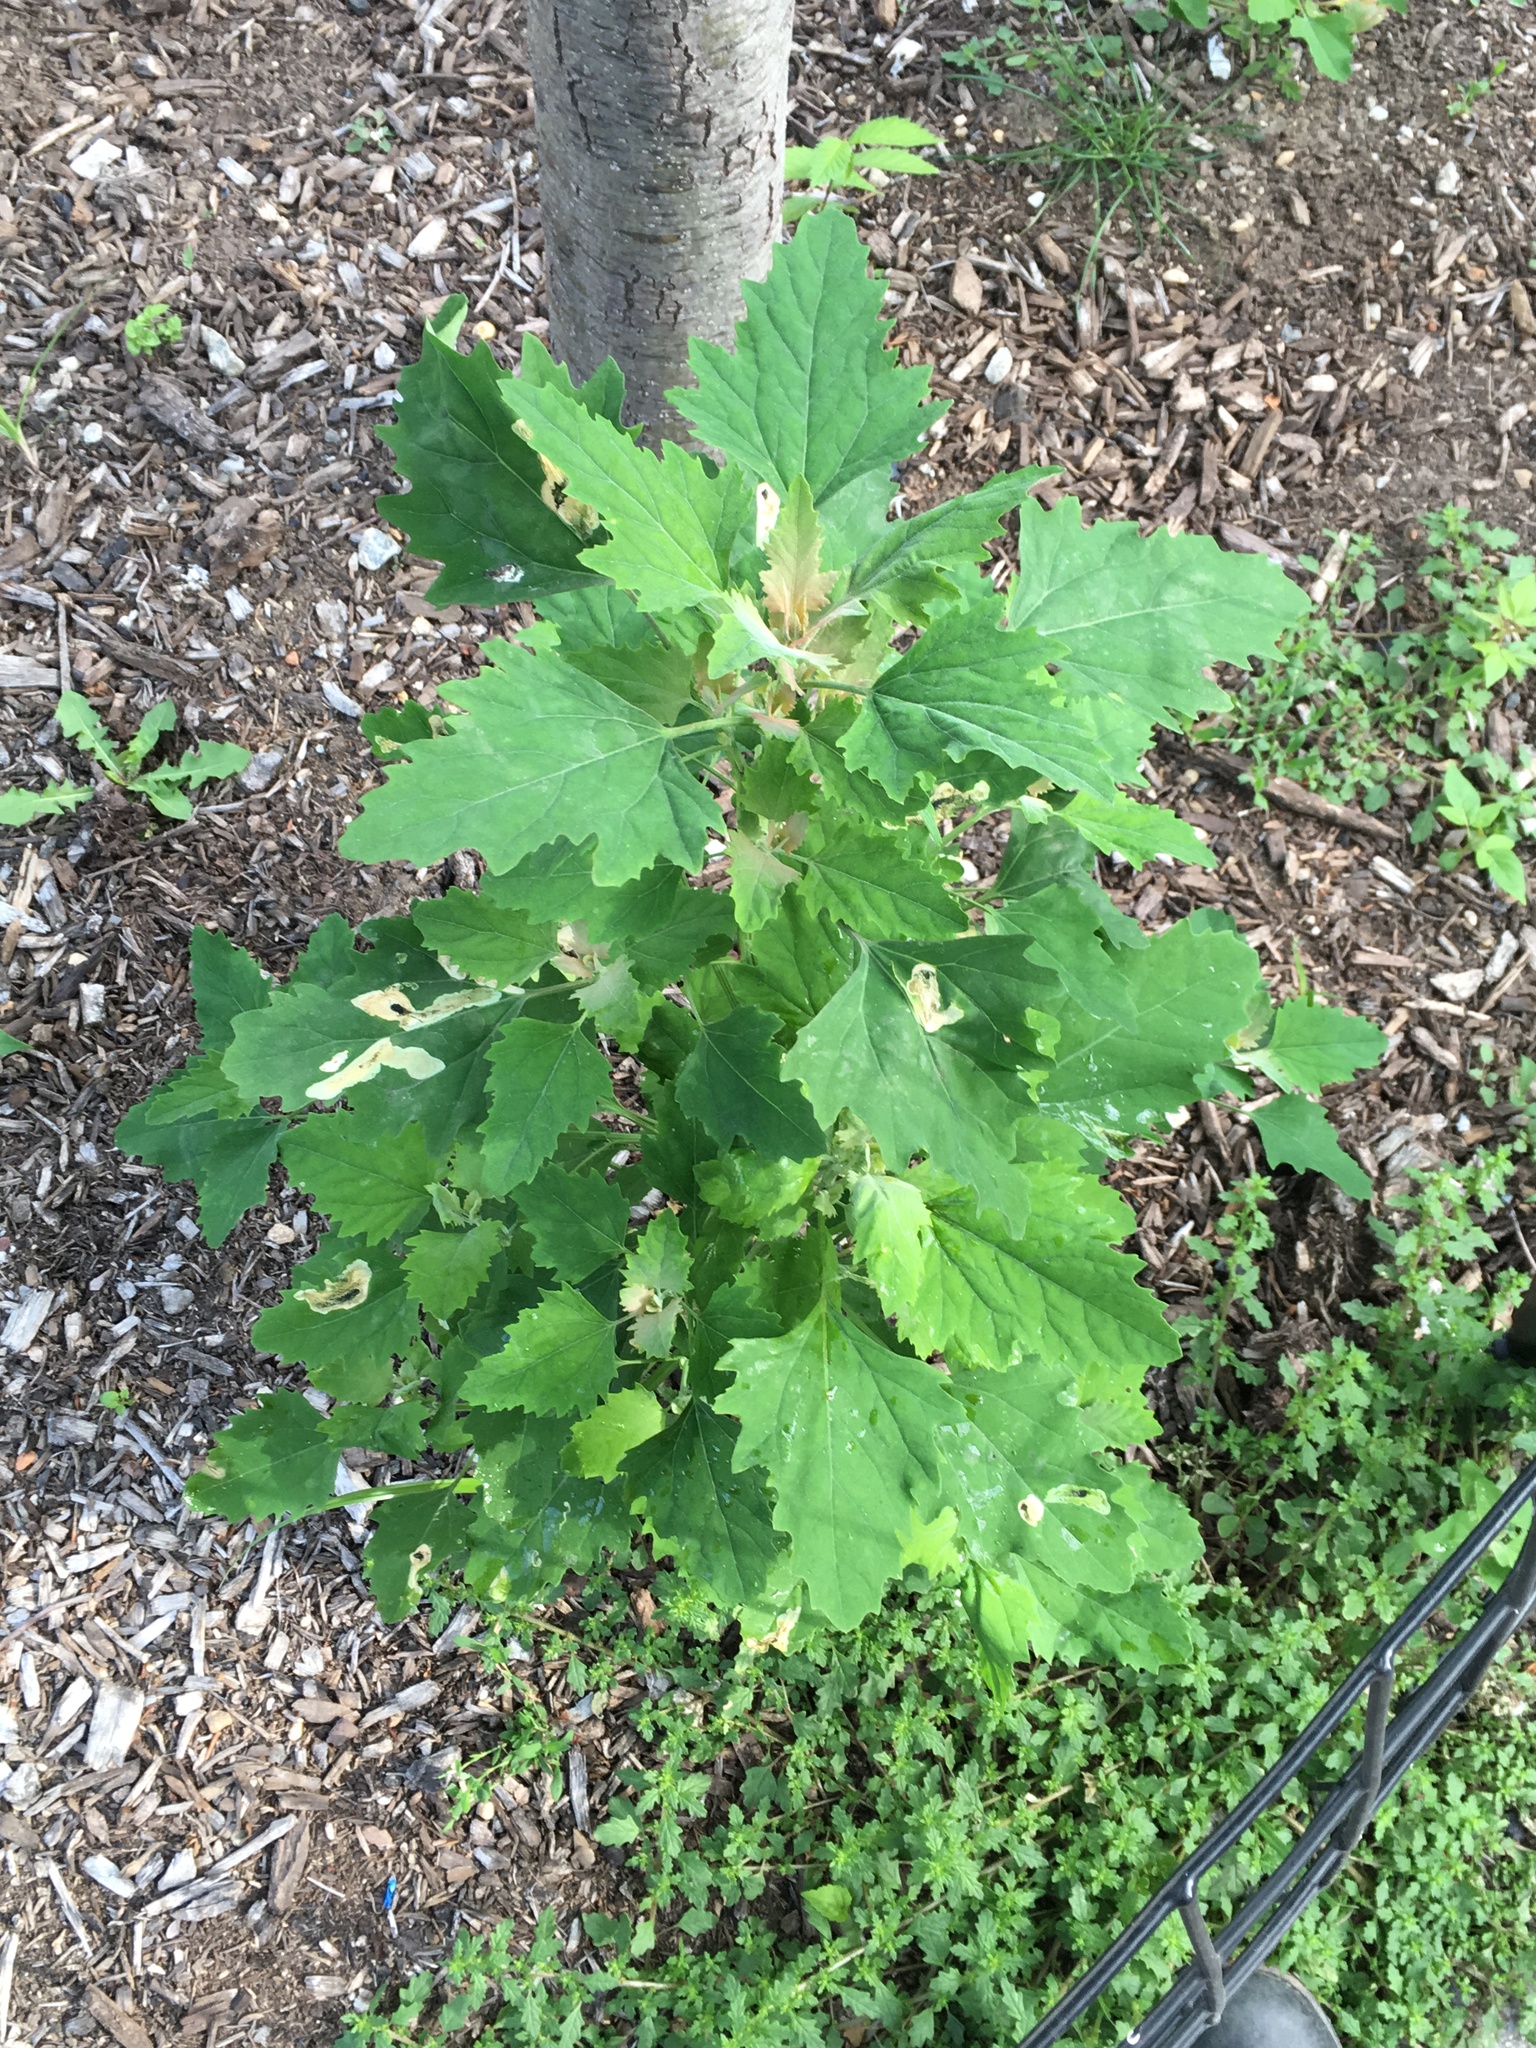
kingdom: Plantae
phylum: Tracheophyta
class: Magnoliopsida
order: Caryophyllales
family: Amaranthaceae
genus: Chenopodium
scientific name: Chenopodium album
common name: Fat-hen
